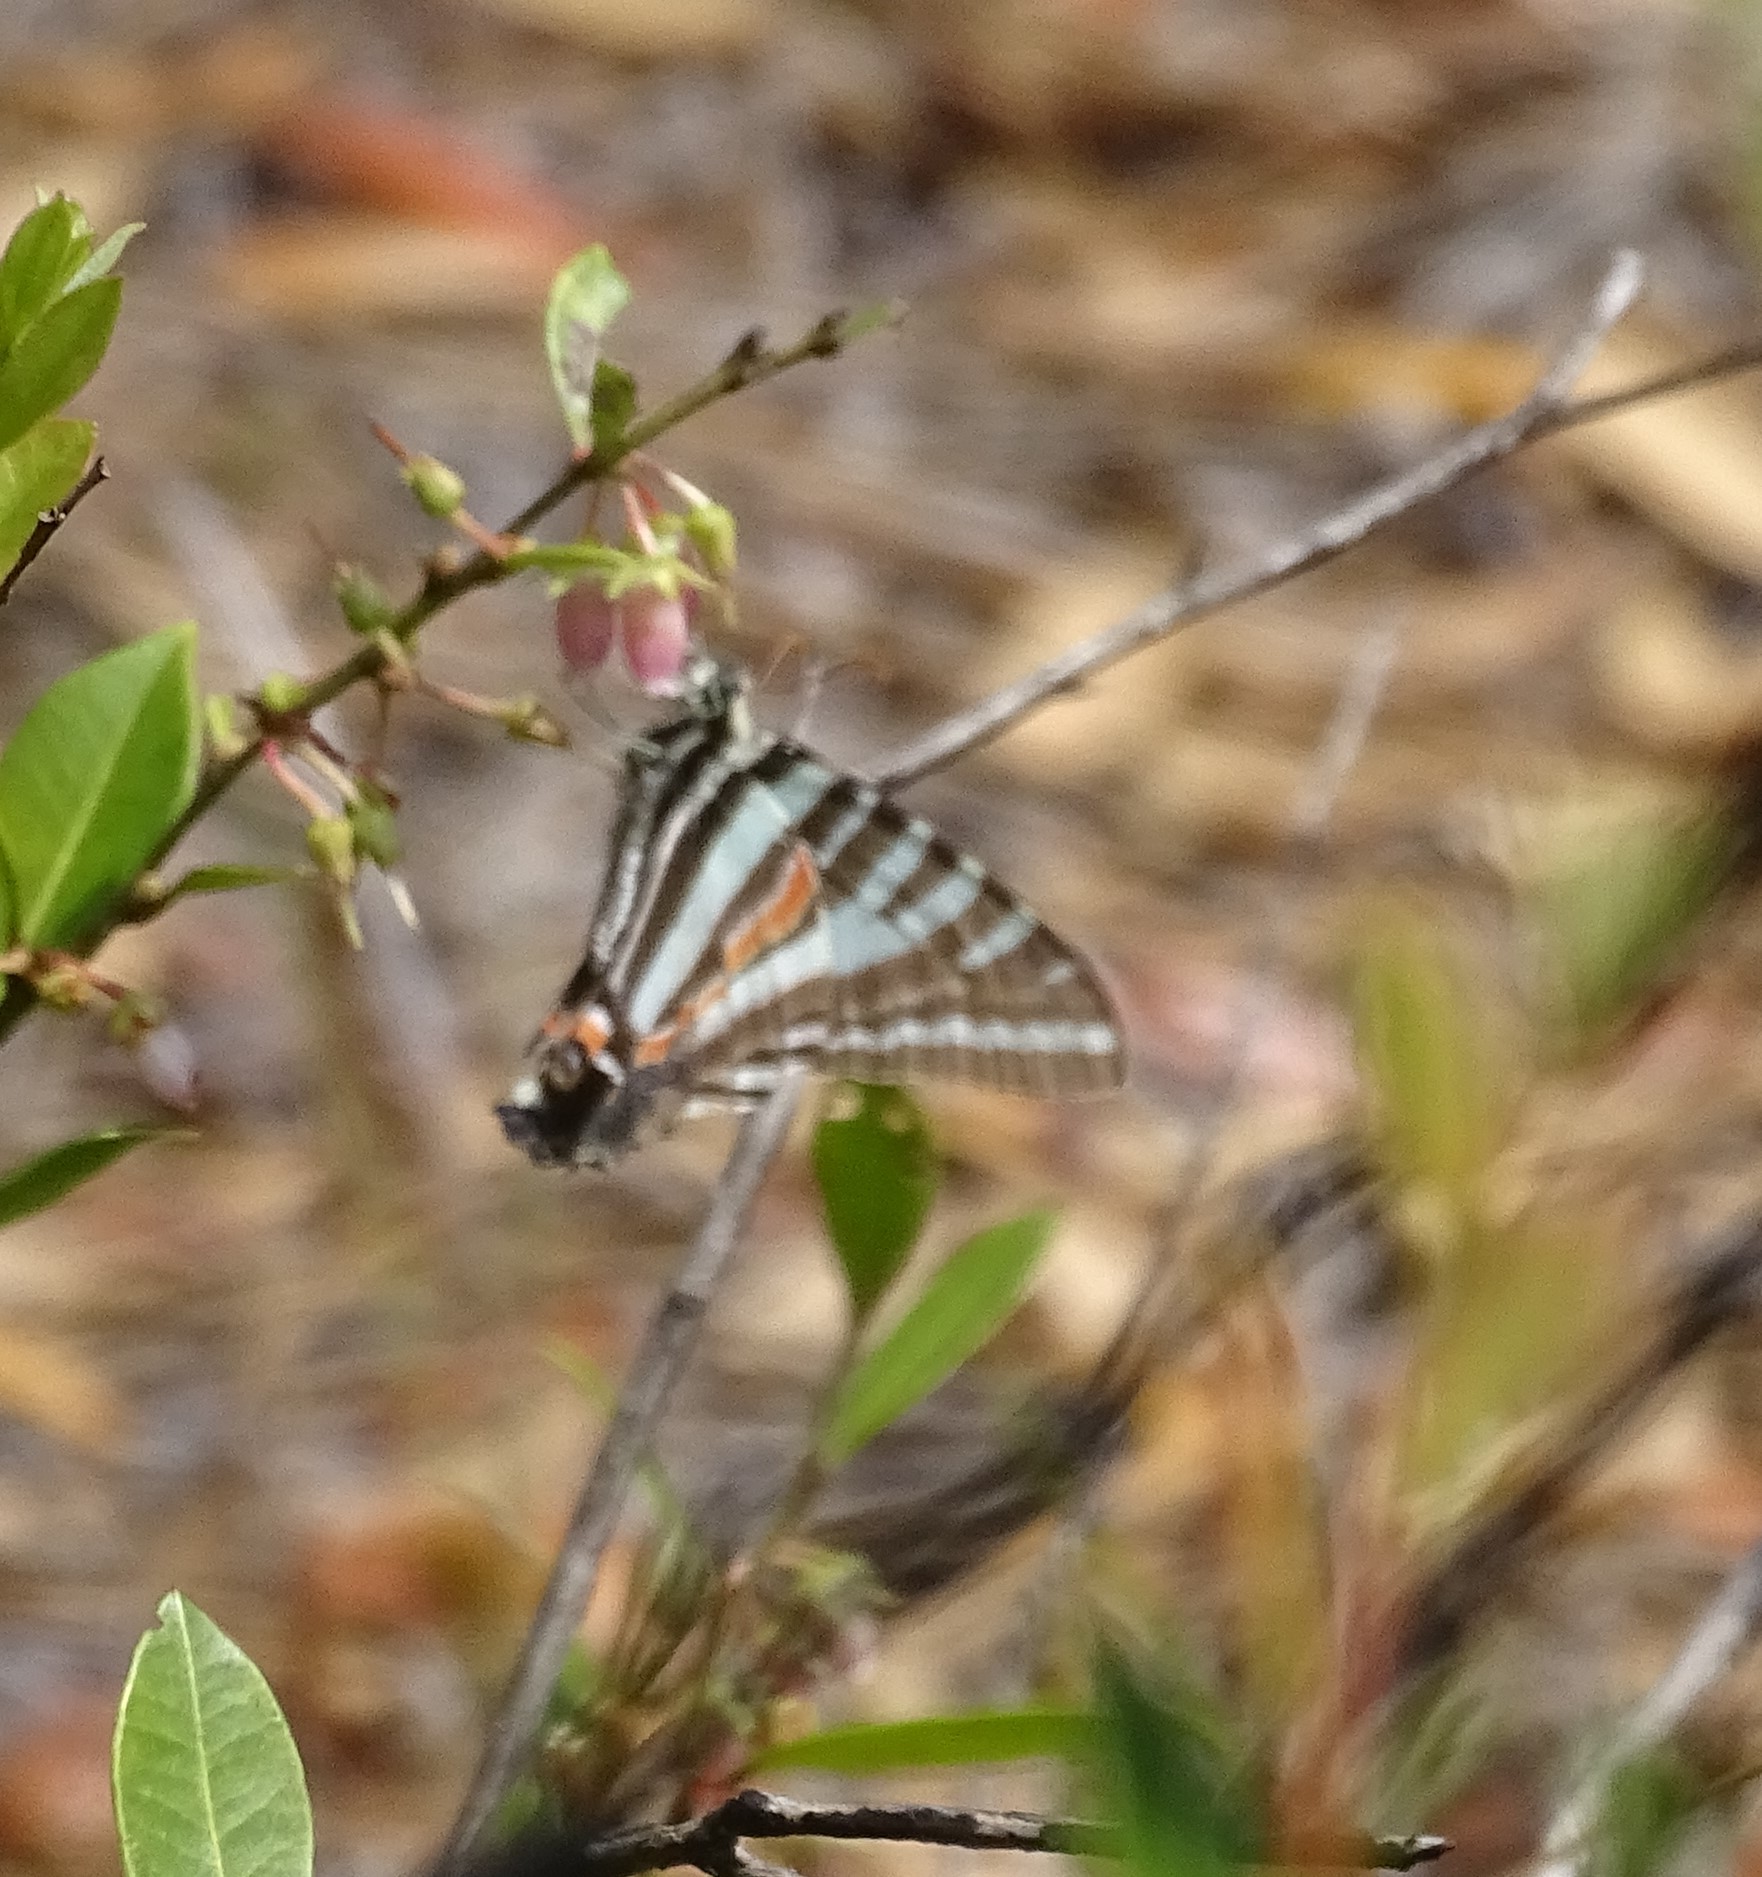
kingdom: Animalia
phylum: Arthropoda
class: Insecta
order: Lepidoptera
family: Papilionidae
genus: Protographium
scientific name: Protographium marcellus
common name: Zebra swallowtail
